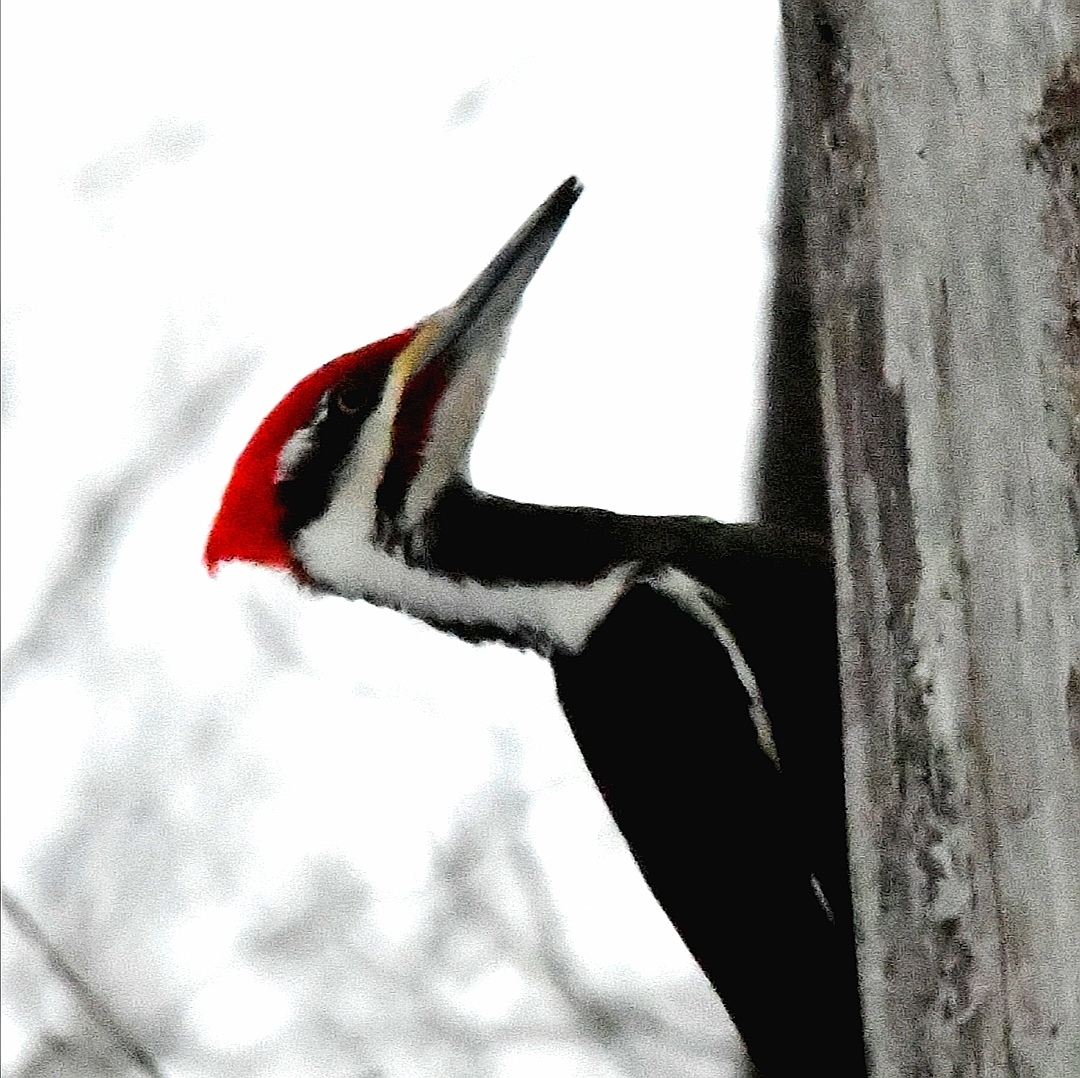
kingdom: Animalia
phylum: Chordata
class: Aves
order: Piciformes
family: Picidae
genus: Dryocopus
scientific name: Dryocopus pileatus
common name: Pileated woodpecker
